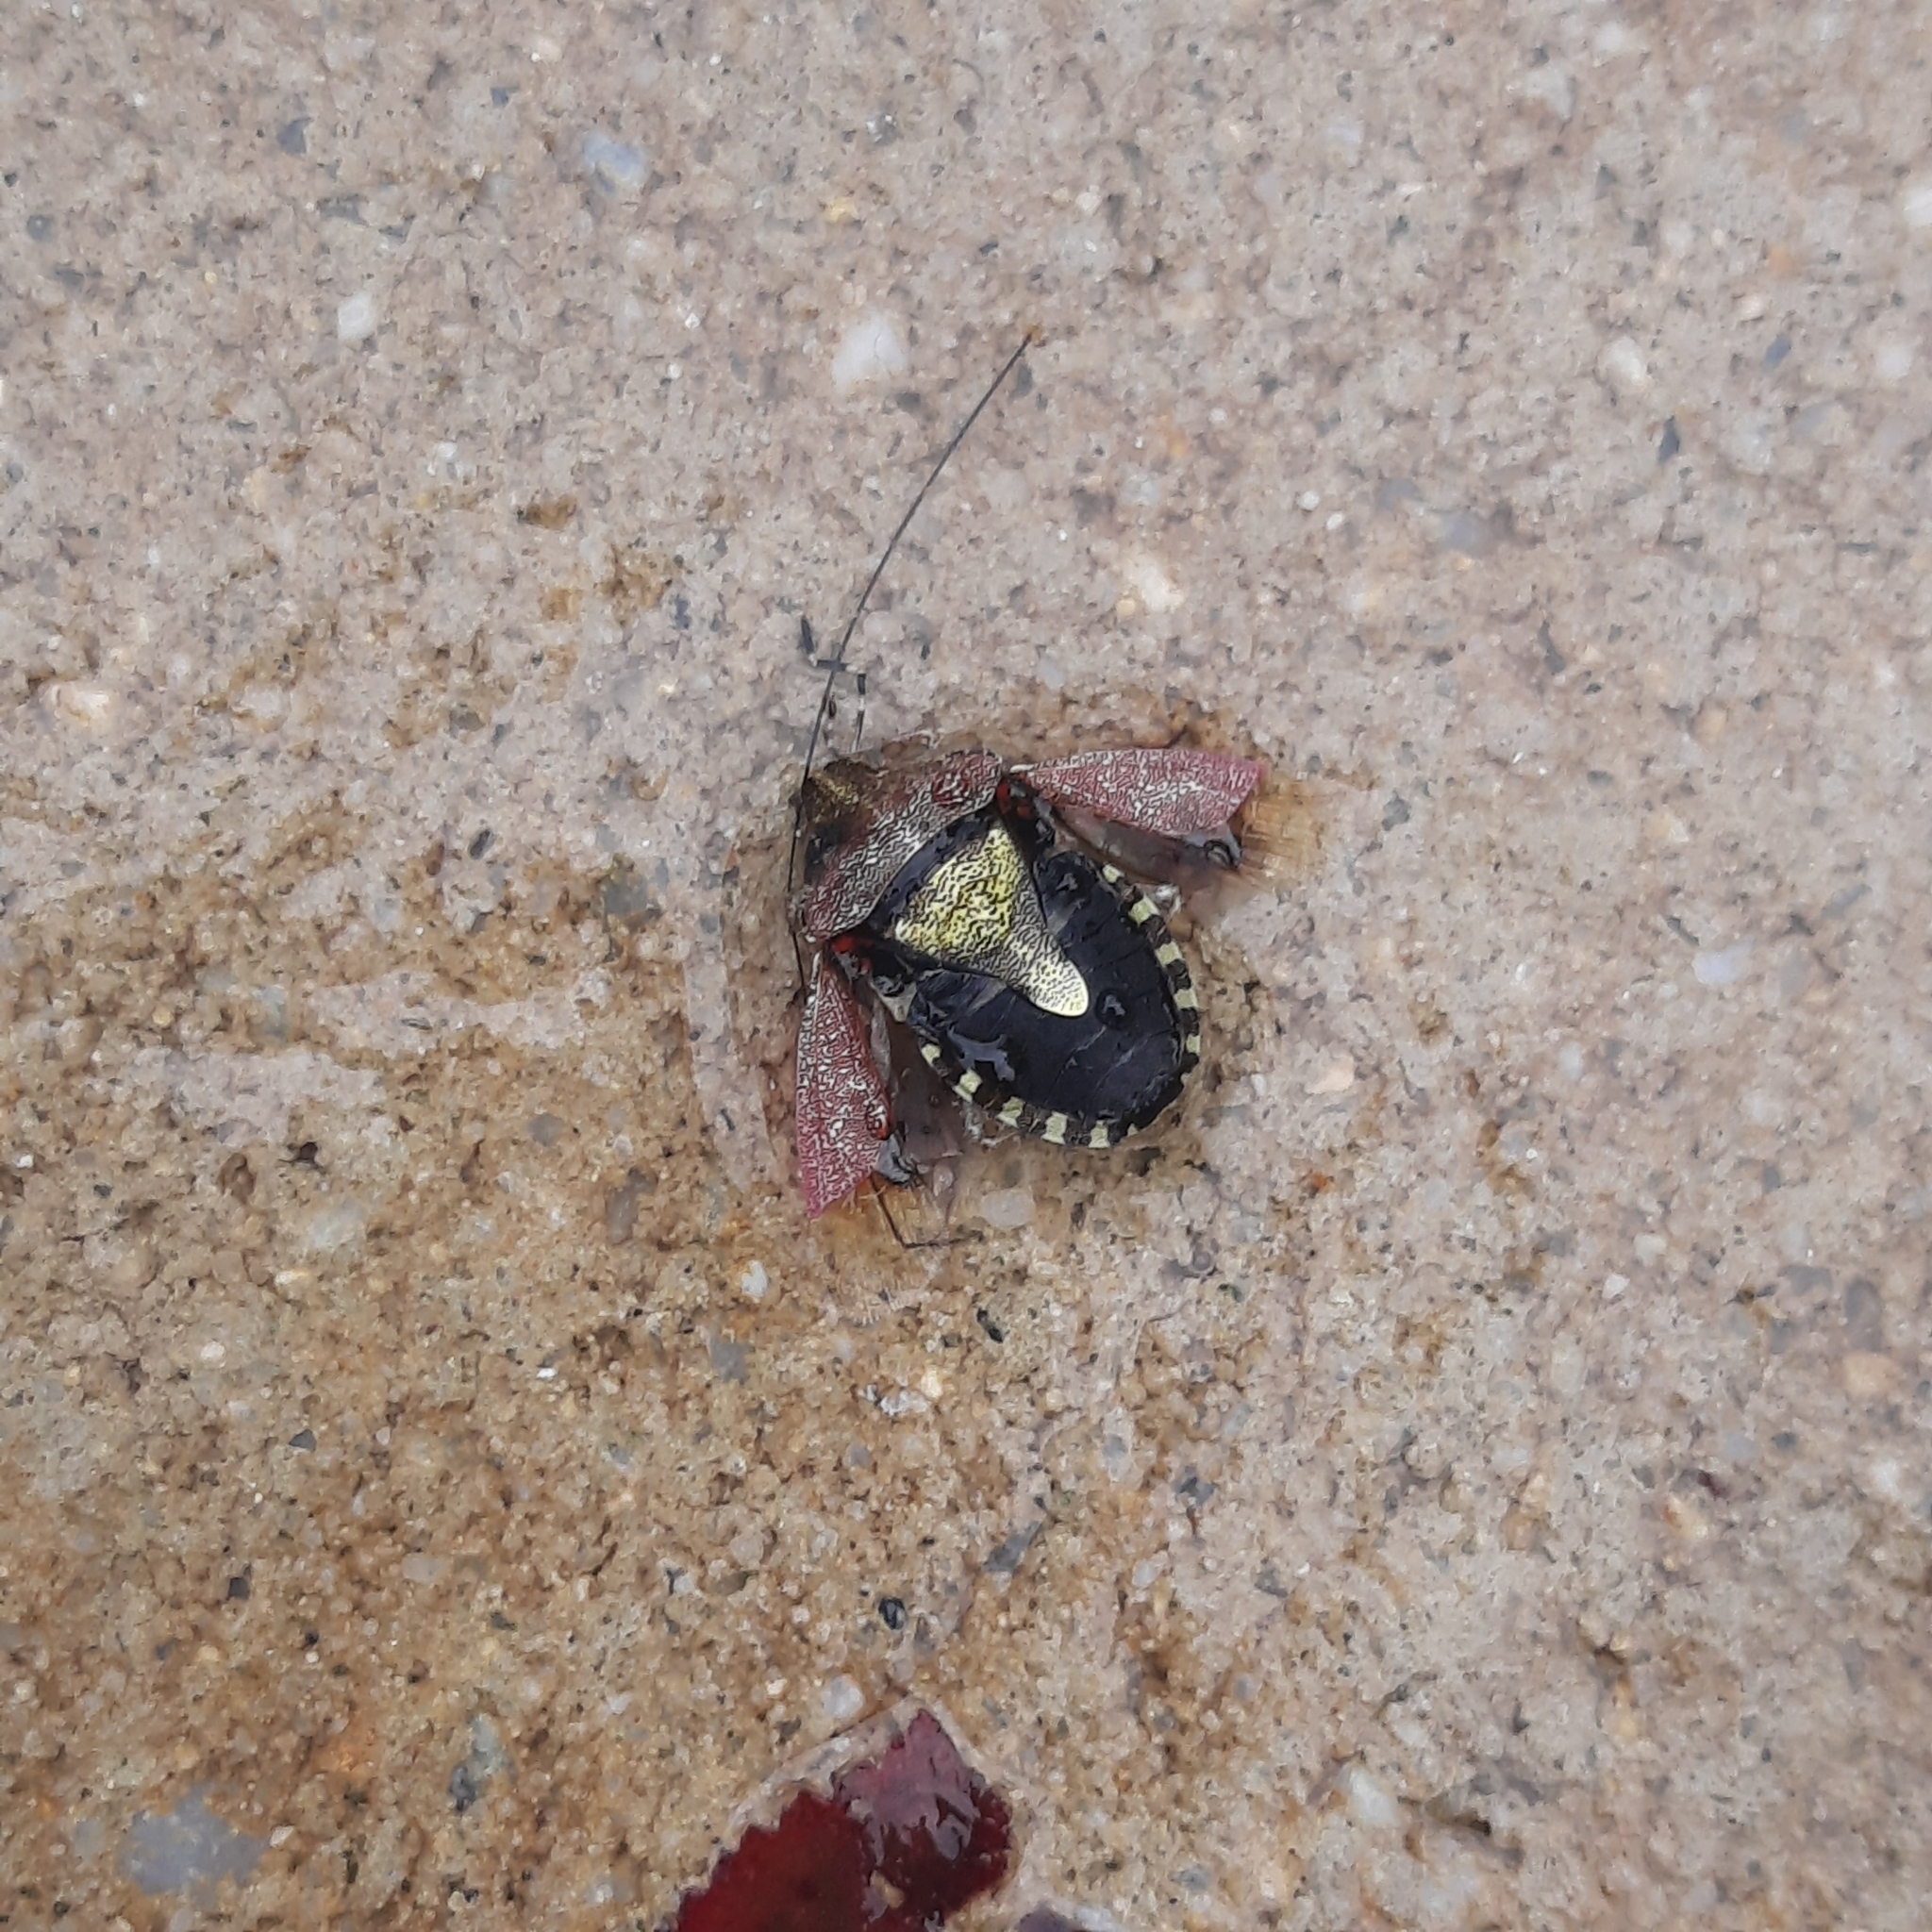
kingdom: Animalia
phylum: Arthropoda
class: Insecta
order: Hemiptera
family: Pentatomidae
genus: Dolycoris
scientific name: Dolycoris baccarum
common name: Sloe bug
